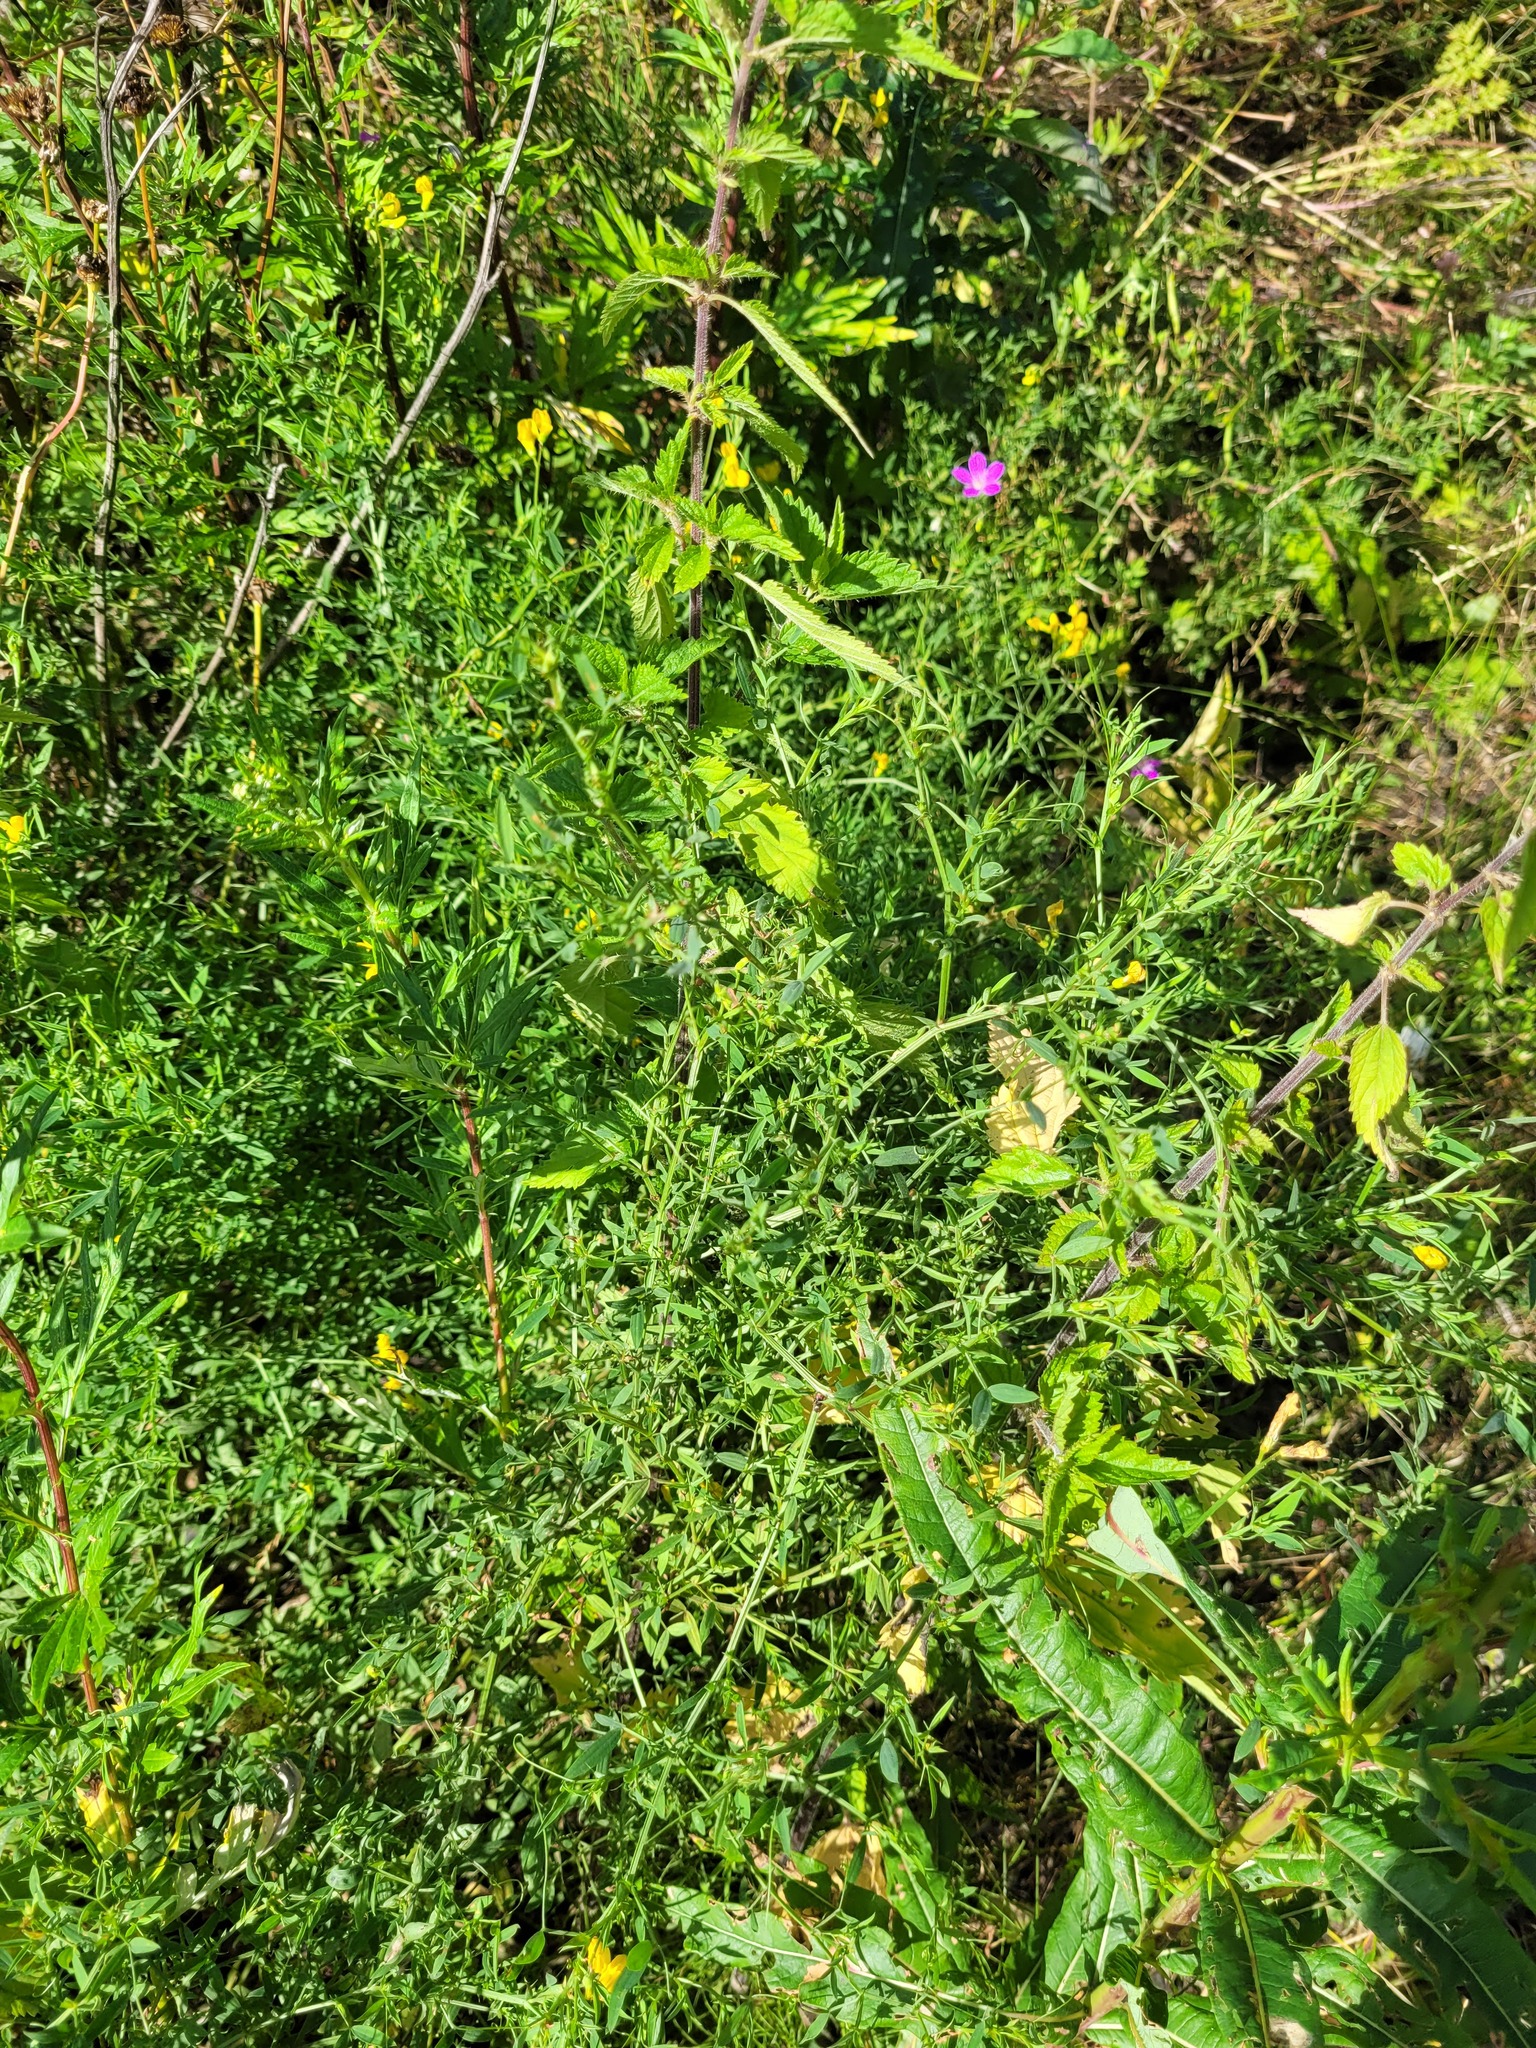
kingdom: Plantae
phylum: Tracheophyta
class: Magnoliopsida
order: Fabales
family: Fabaceae
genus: Lathyrus
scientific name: Lathyrus pratensis
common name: Meadow vetchling
